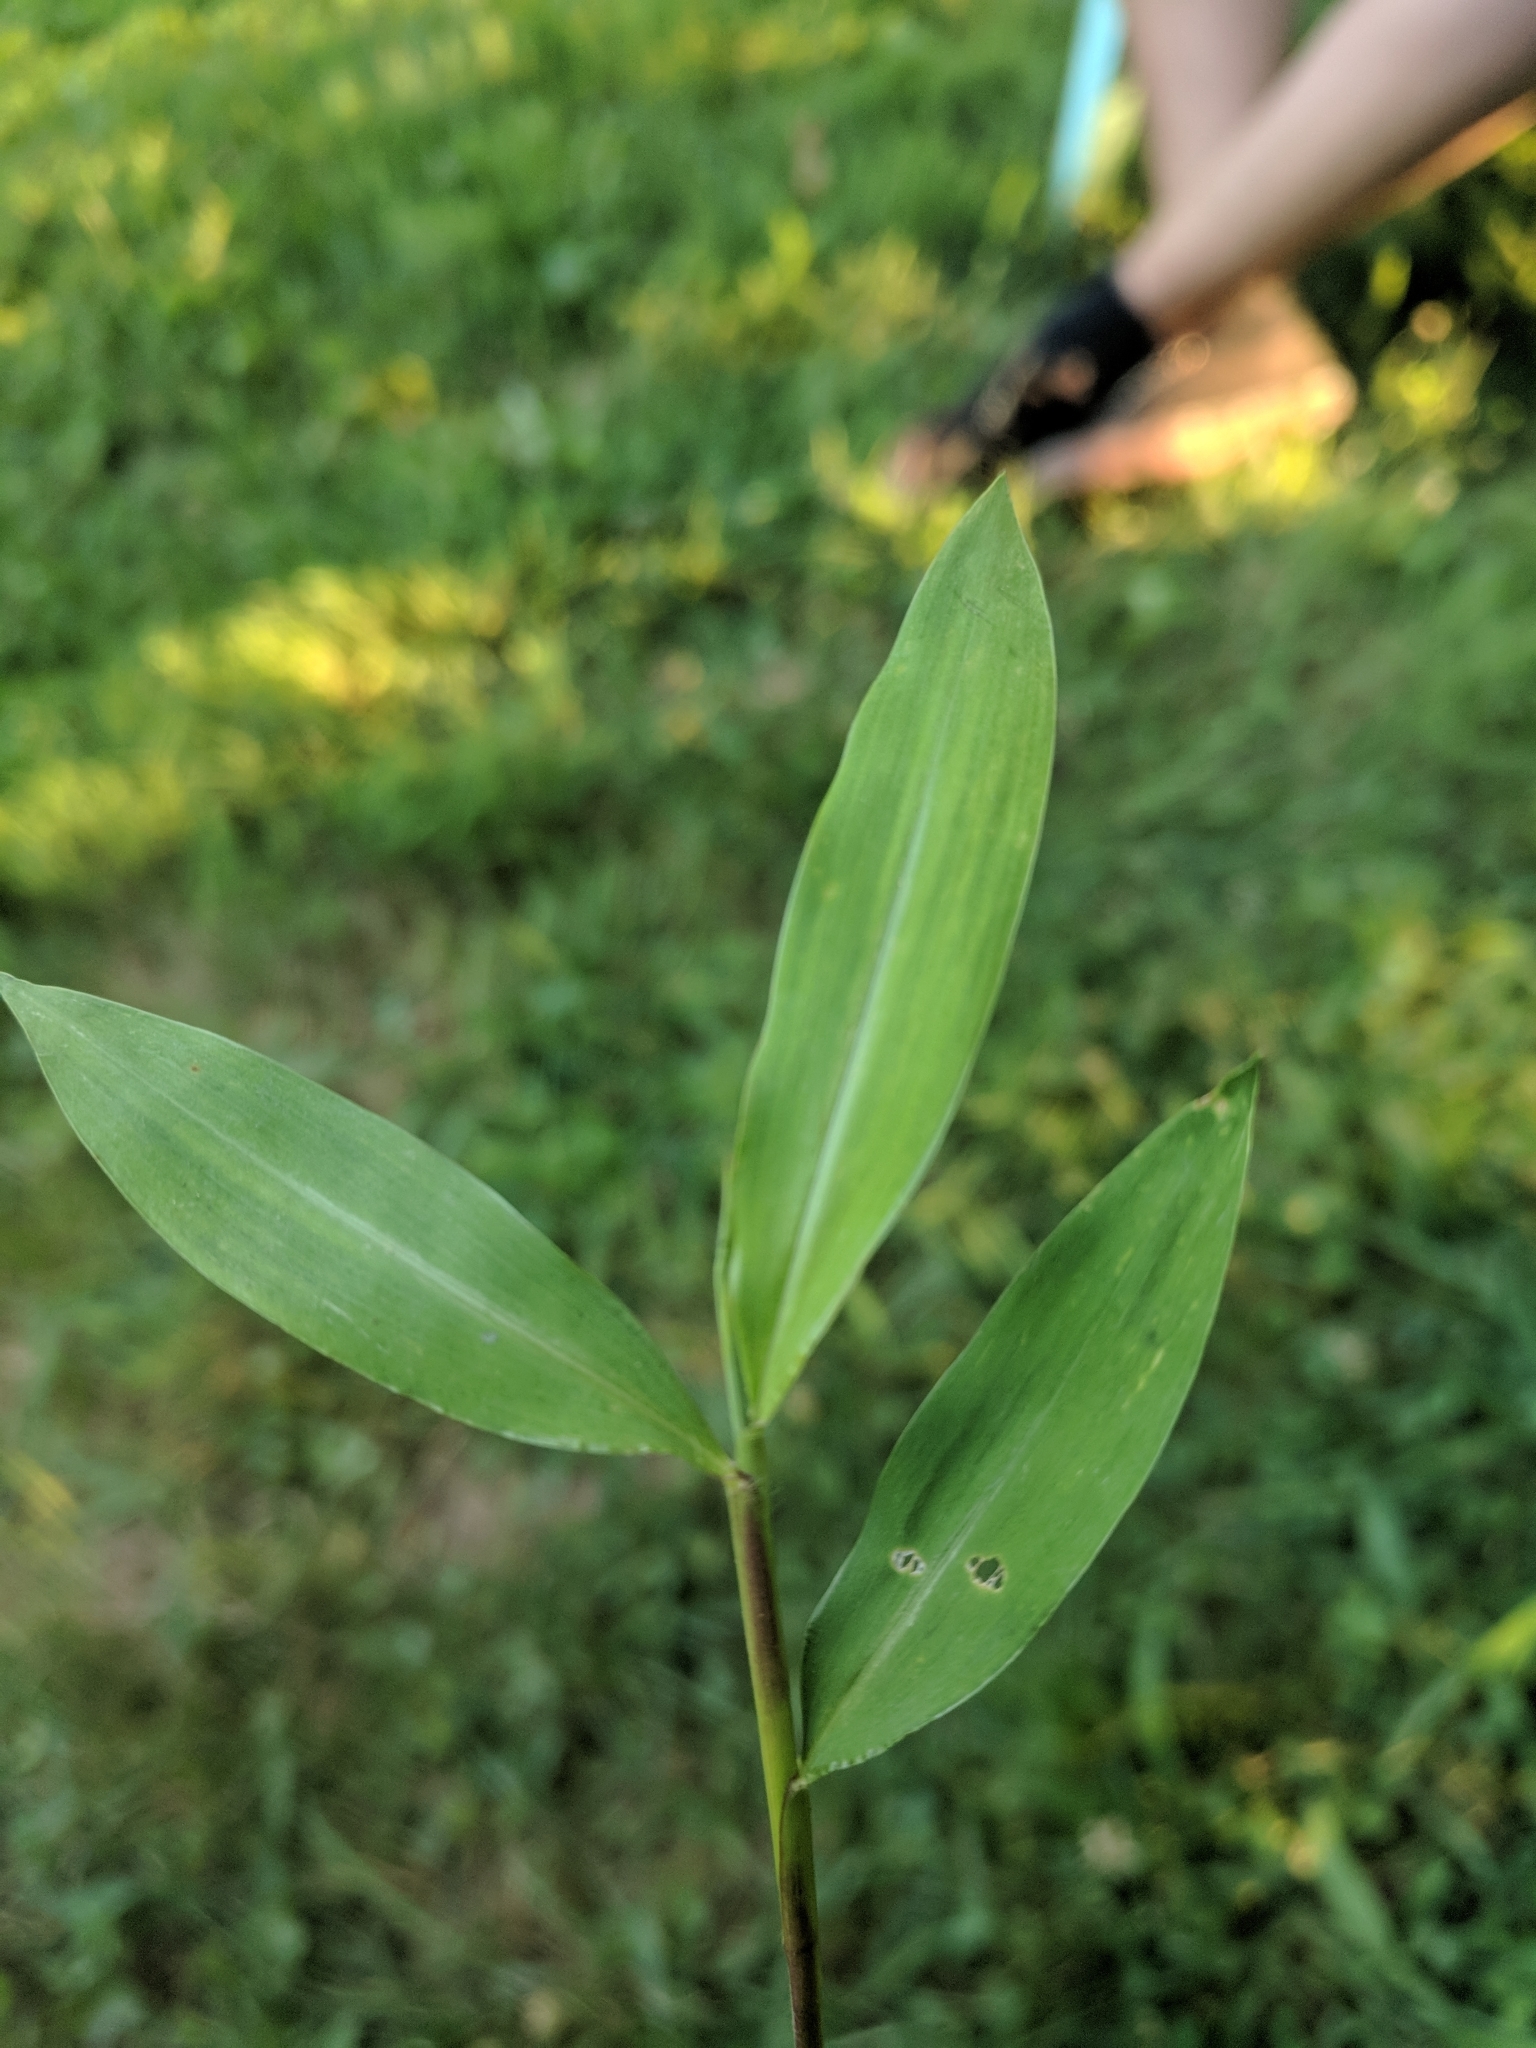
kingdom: Plantae
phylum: Tracheophyta
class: Liliopsida
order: Poales
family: Poaceae
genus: Microstegium
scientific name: Microstegium vimineum
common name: Japanese stiltgrass
